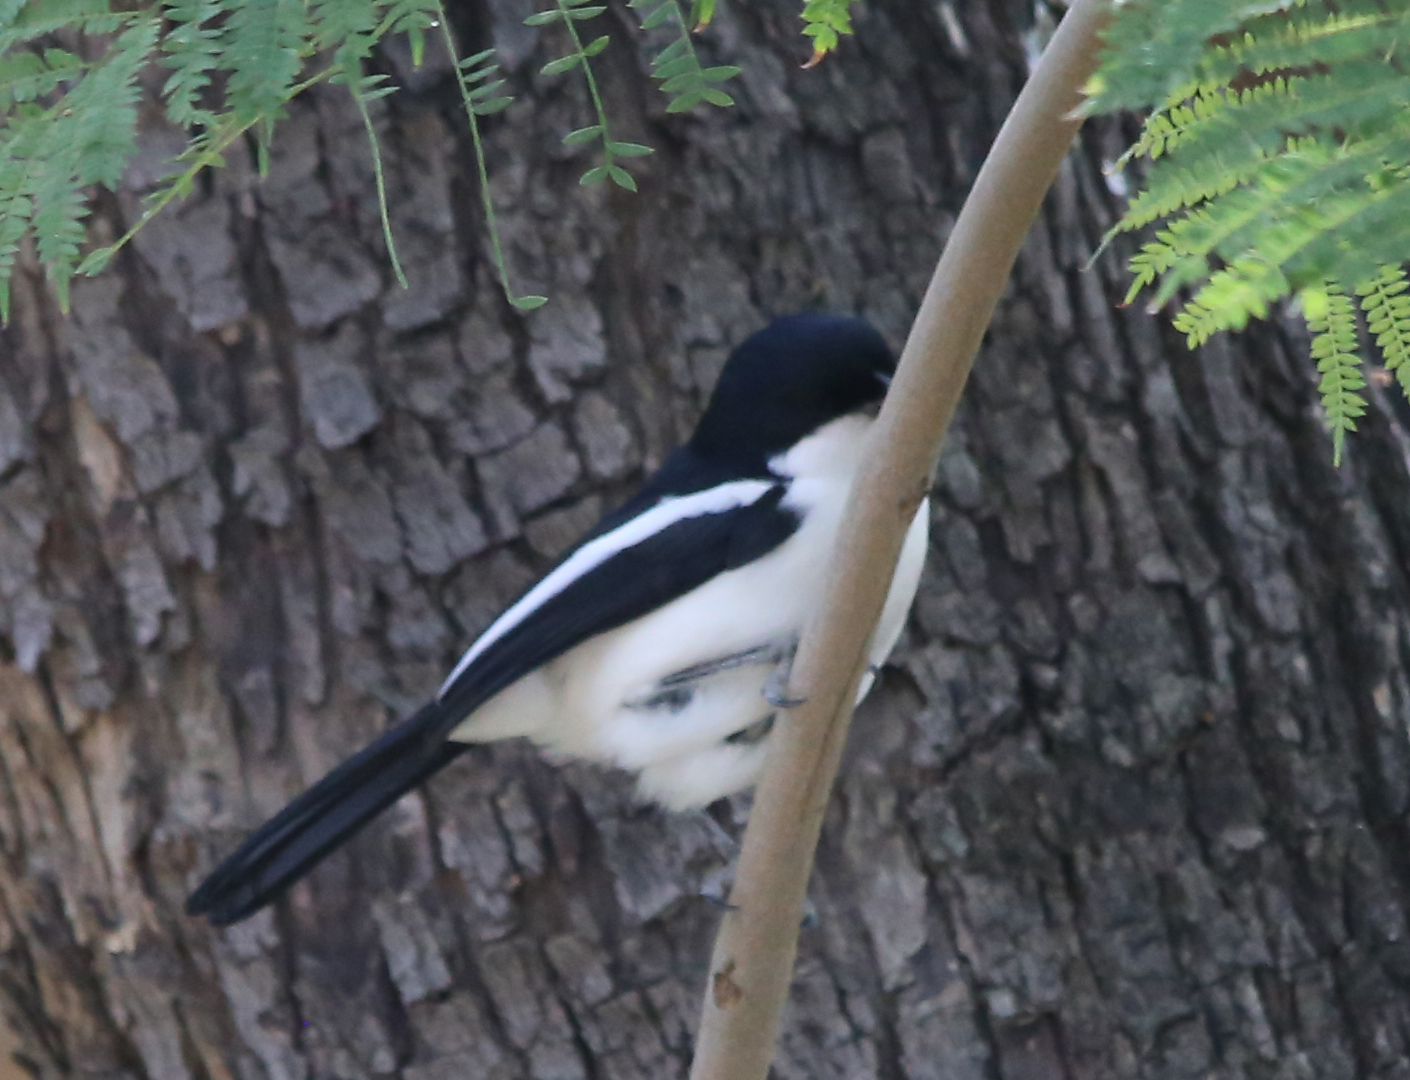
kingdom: Animalia
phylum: Chordata
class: Aves
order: Passeriformes
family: Malaconotidae
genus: Laniarius
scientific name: Laniarius bicolor
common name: Swamp boubou
